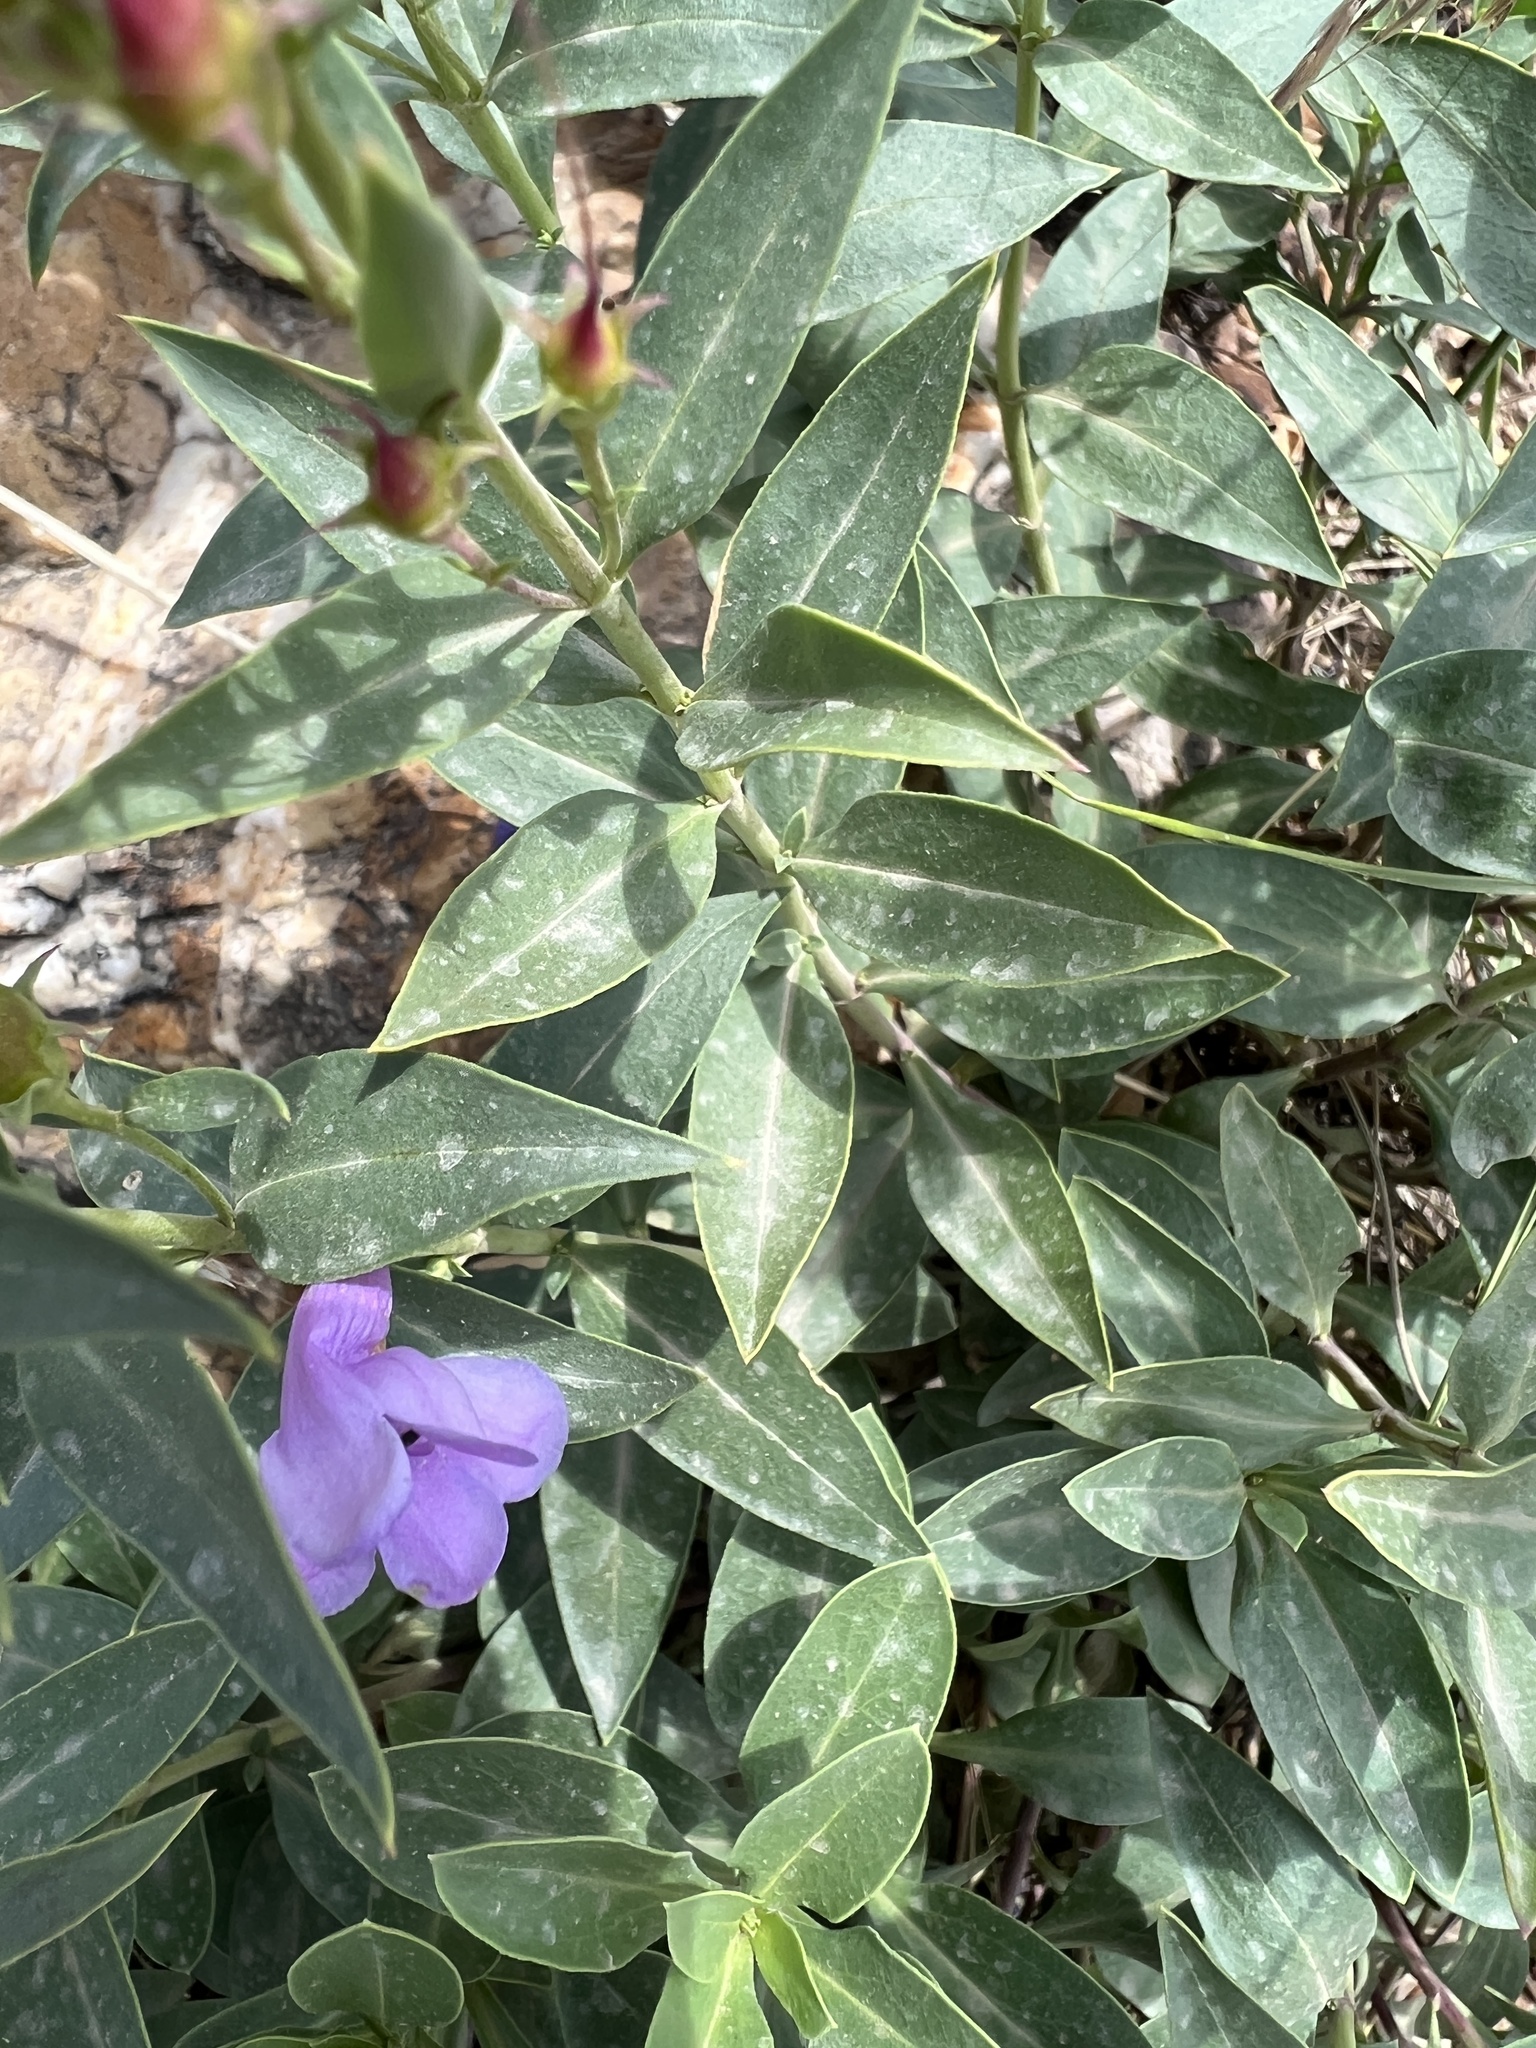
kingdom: Plantae
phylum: Tracheophyta
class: Magnoliopsida
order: Lamiales
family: Plantaginaceae
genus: Penstemon
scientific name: Penstemon platyphyllus
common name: Broadleaf penstemon
